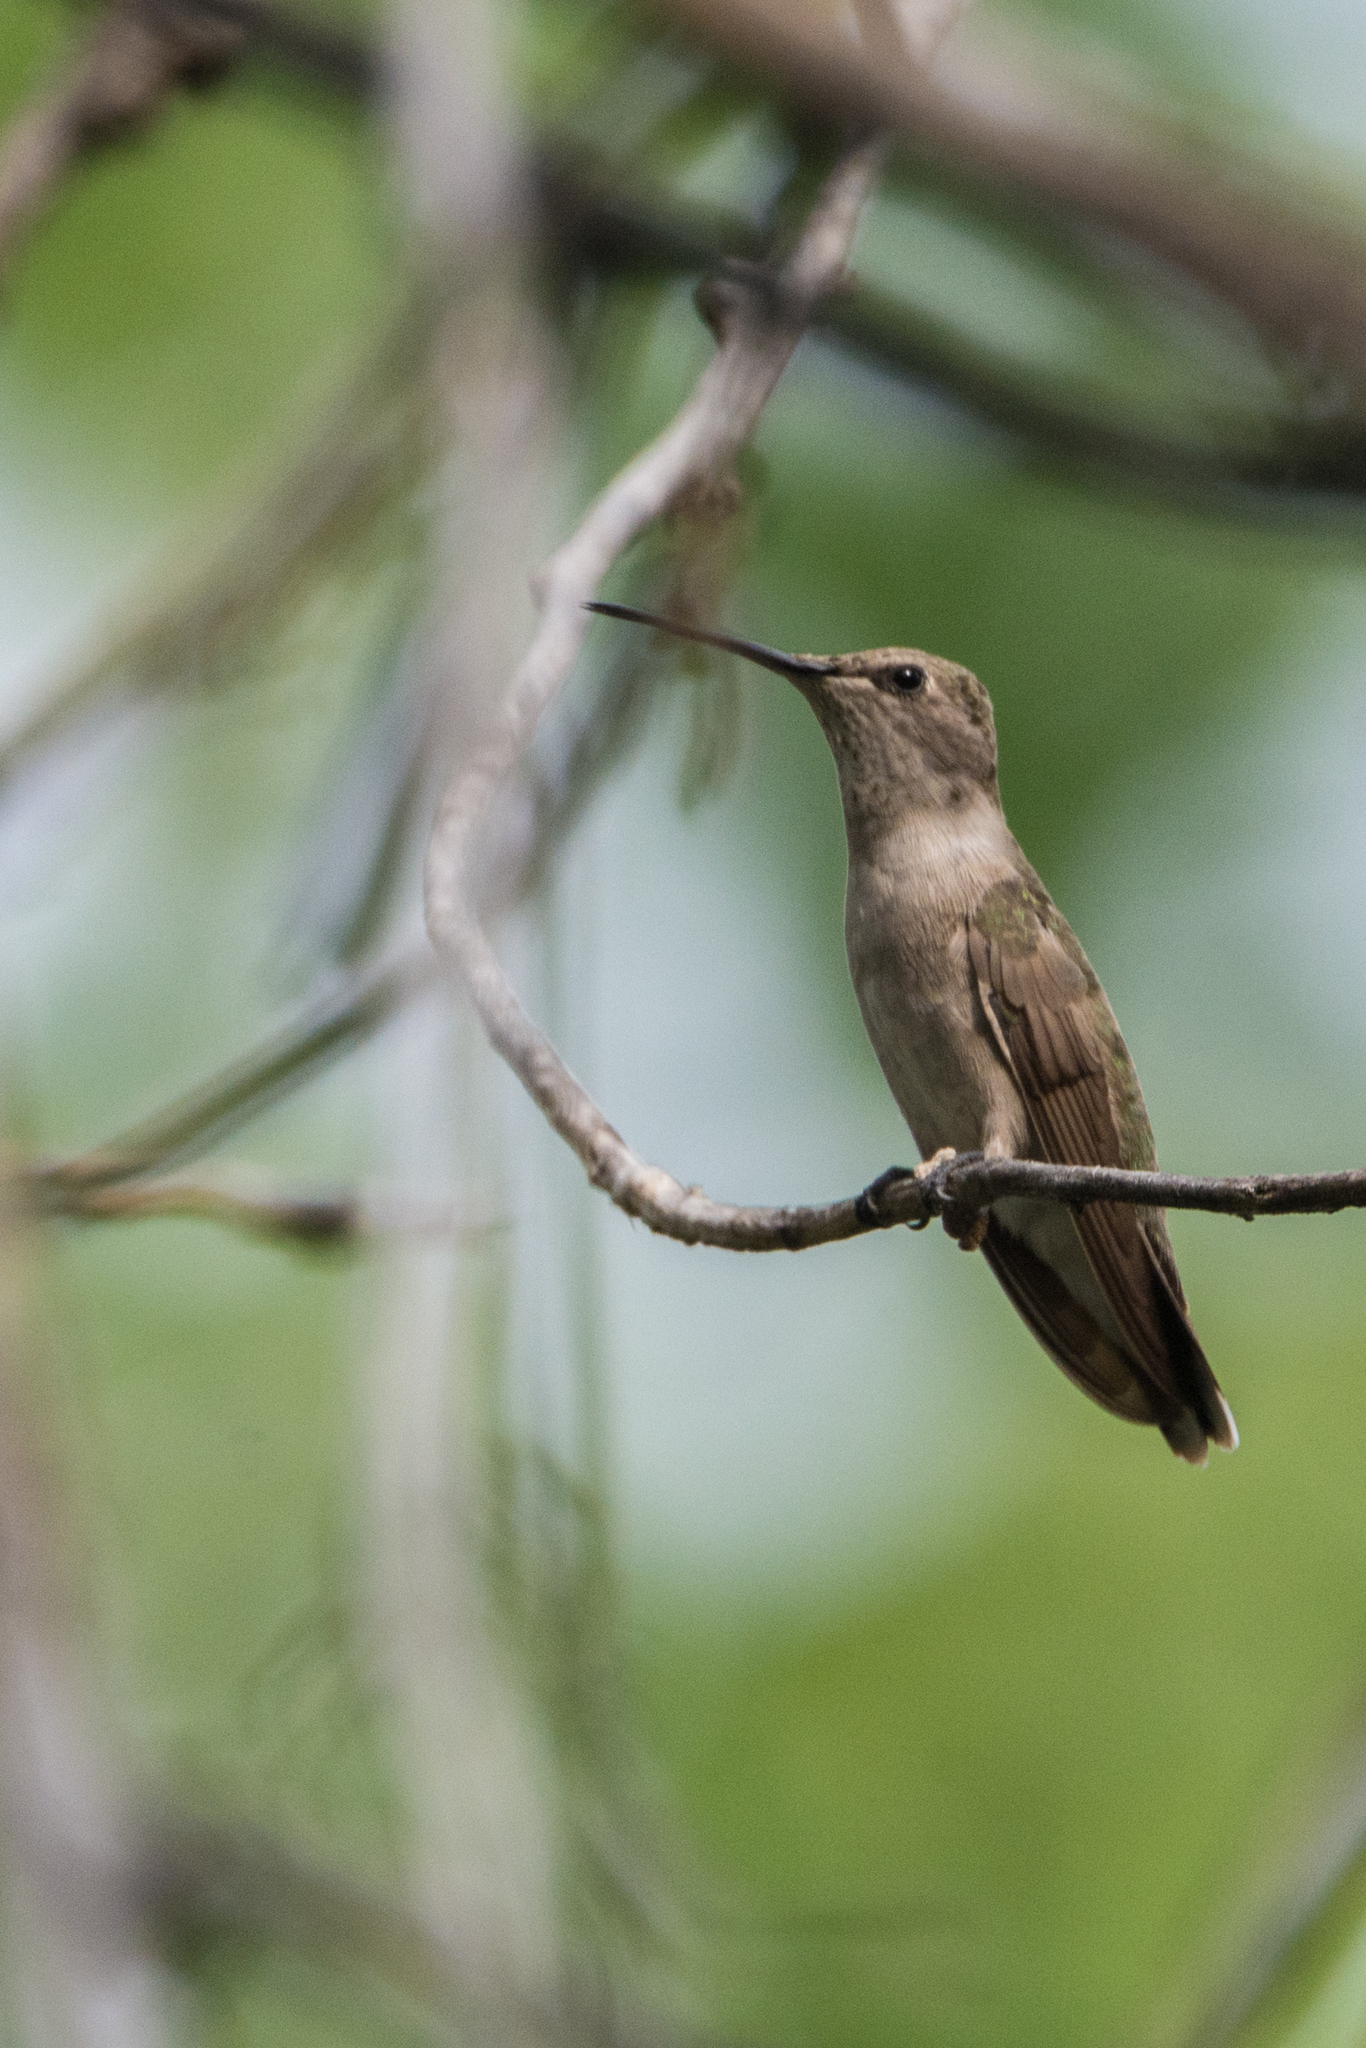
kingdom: Animalia
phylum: Chordata
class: Aves
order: Apodiformes
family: Trochilidae
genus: Archilochus
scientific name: Archilochus alexandri
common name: Black-chinned hummingbird
